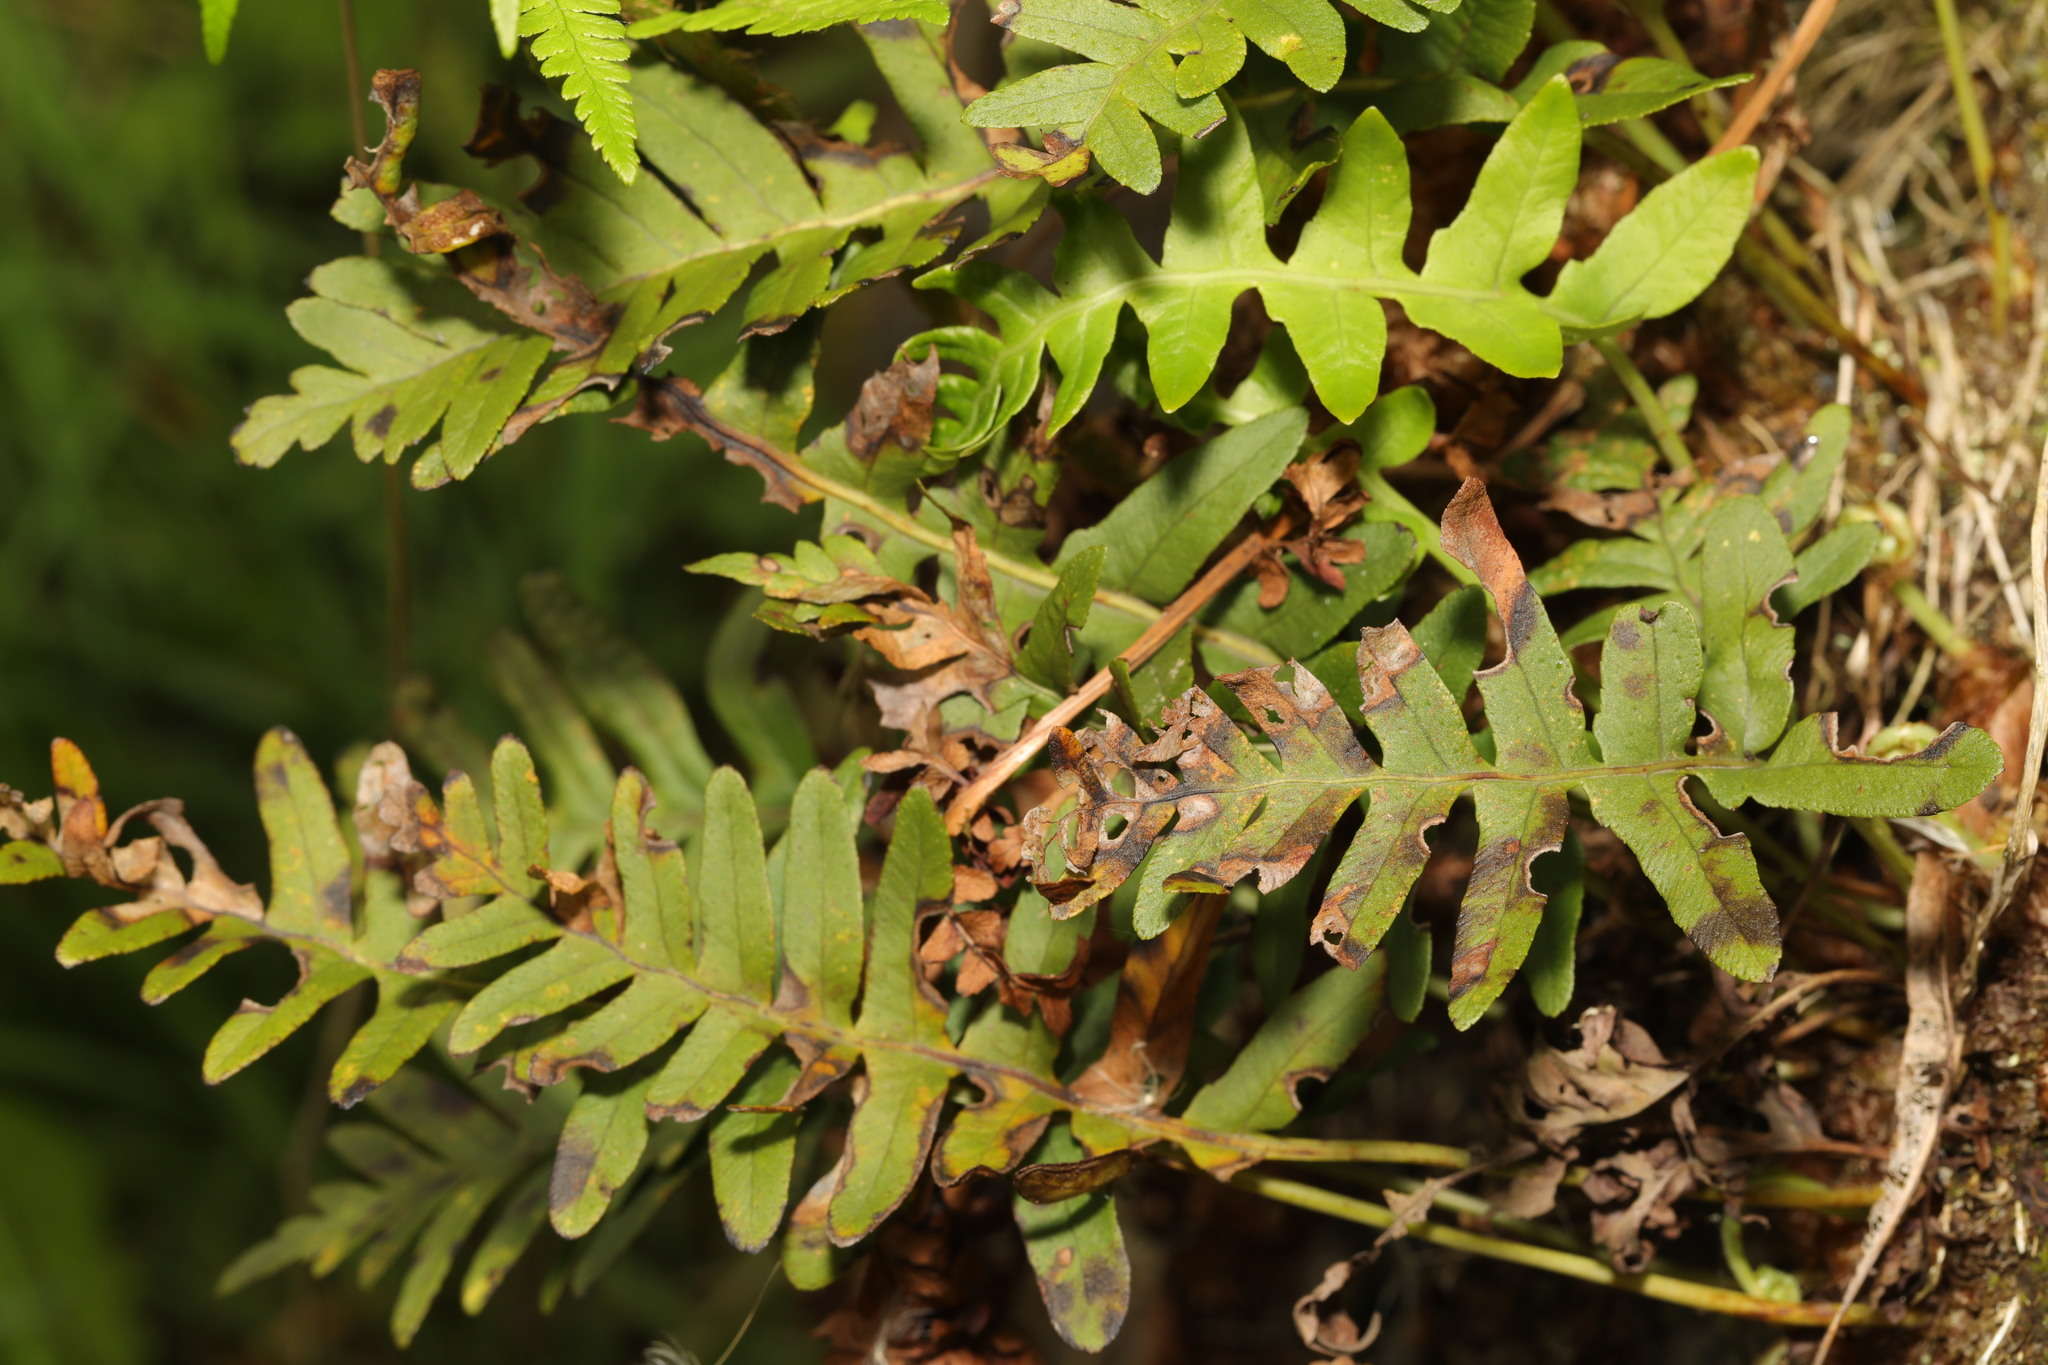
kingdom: Plantae
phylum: Tracheophyta
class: Polypodiopsida
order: Polypodiales
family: Polypodiaceae
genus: Polypodium
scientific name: Polypodium vulgare
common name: Common polypody
